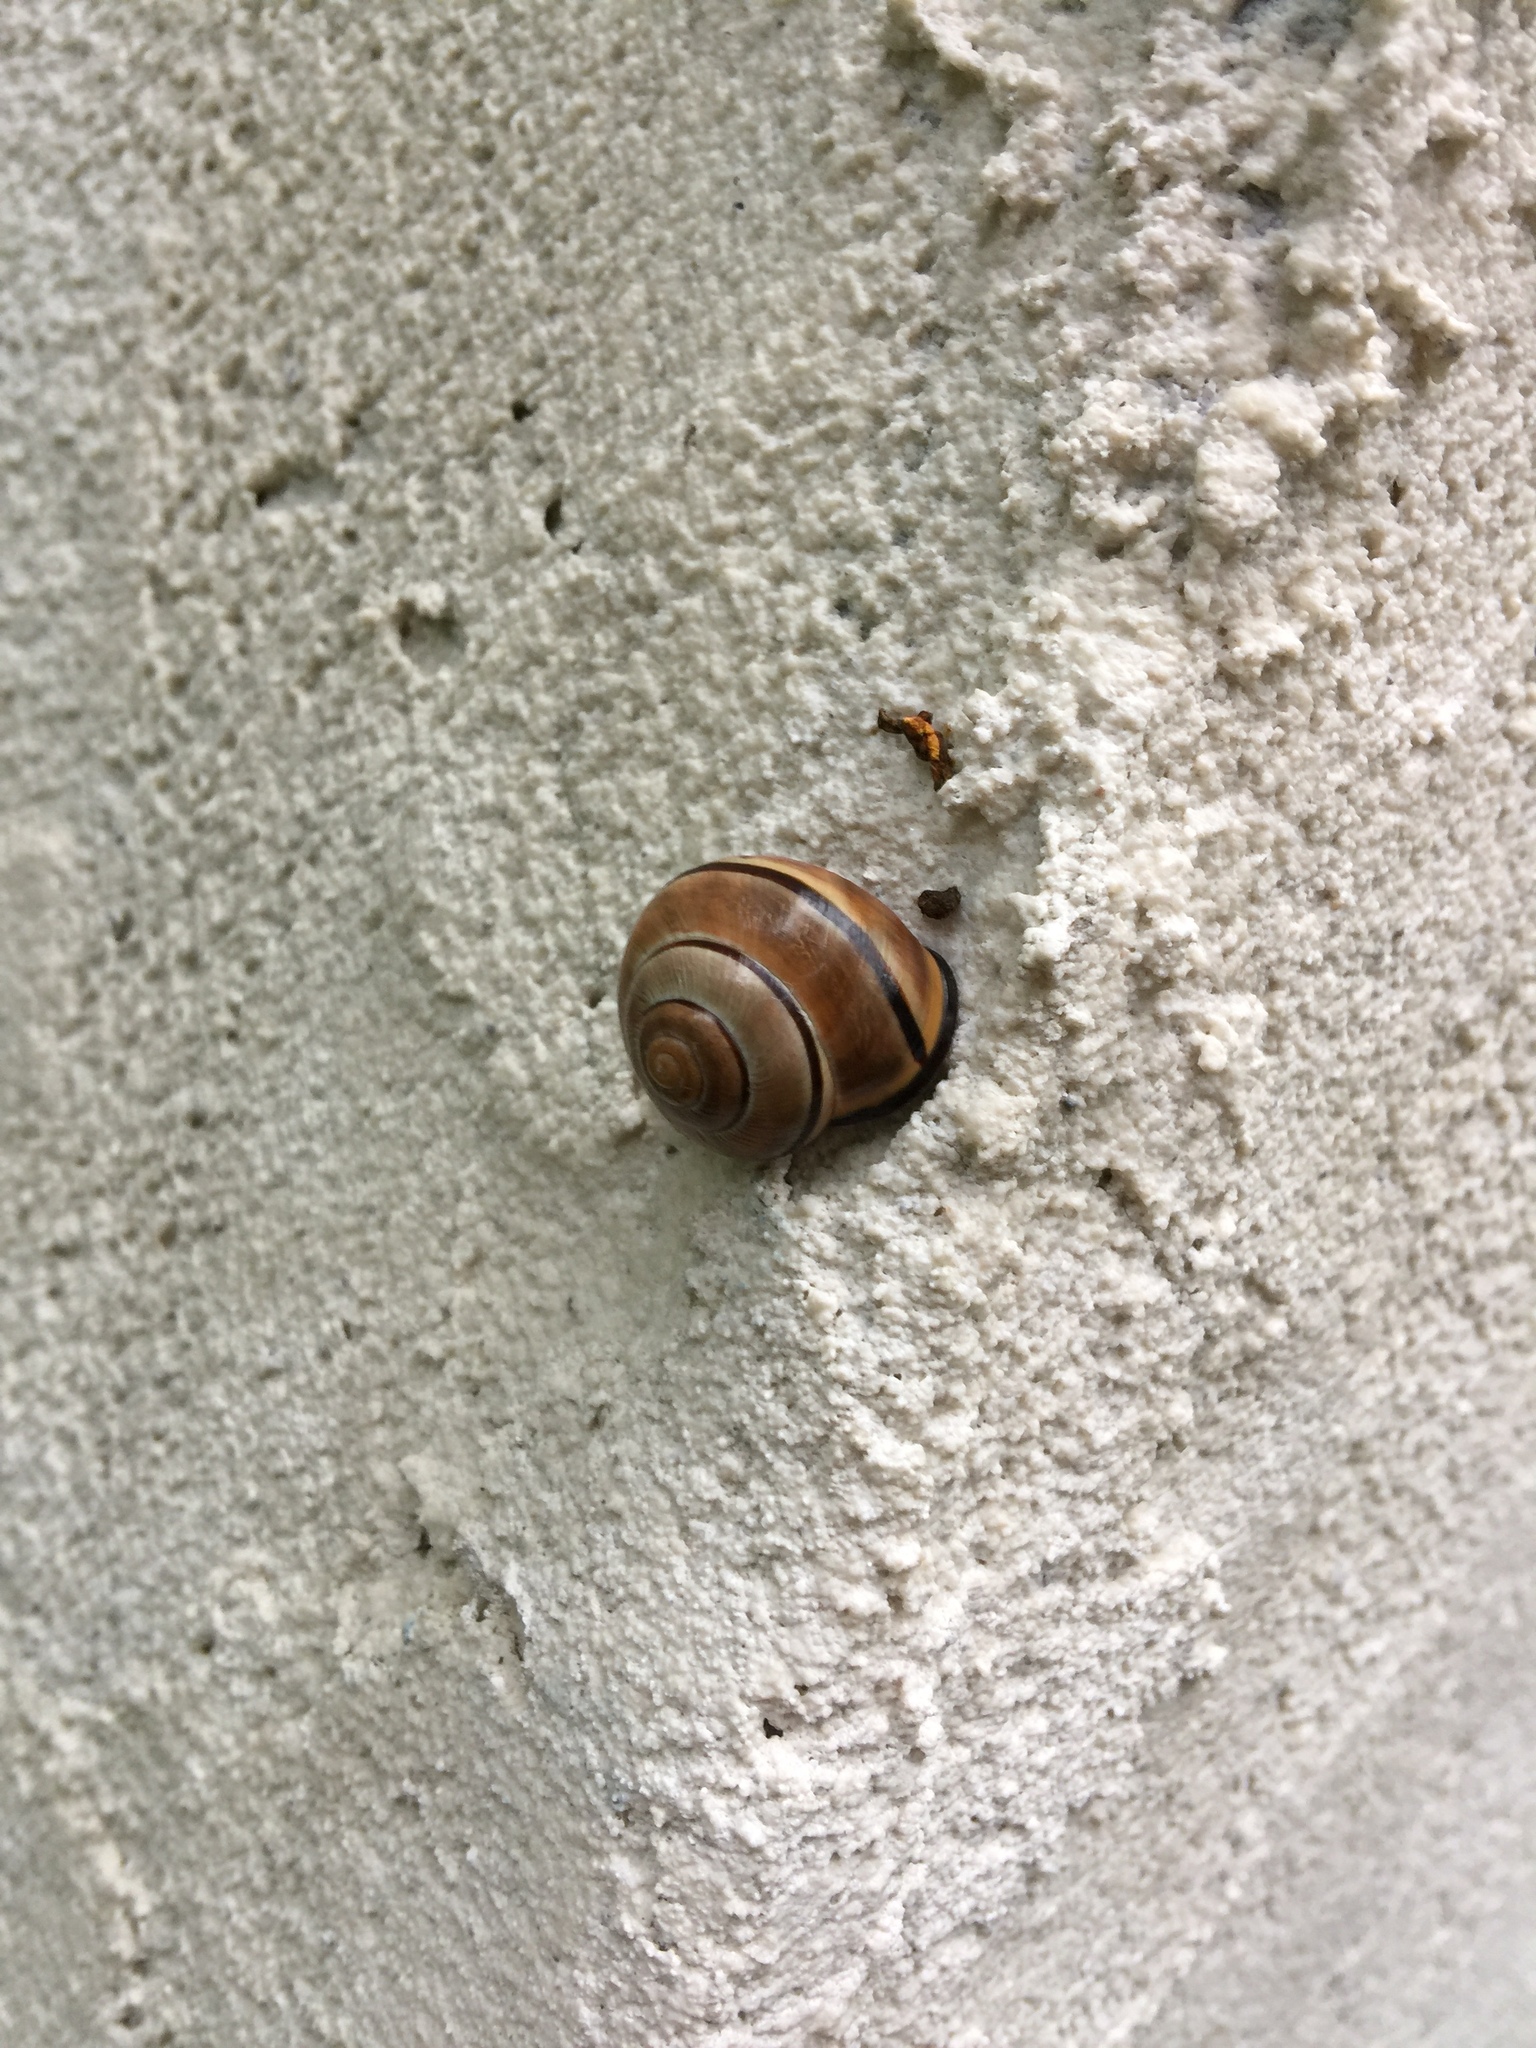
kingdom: Animalia
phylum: Mollusca
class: Gastropoda
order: Stylommatophora
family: Helicidae
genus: Cepaea
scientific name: Cepaea nemoralis
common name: Grovesnail
